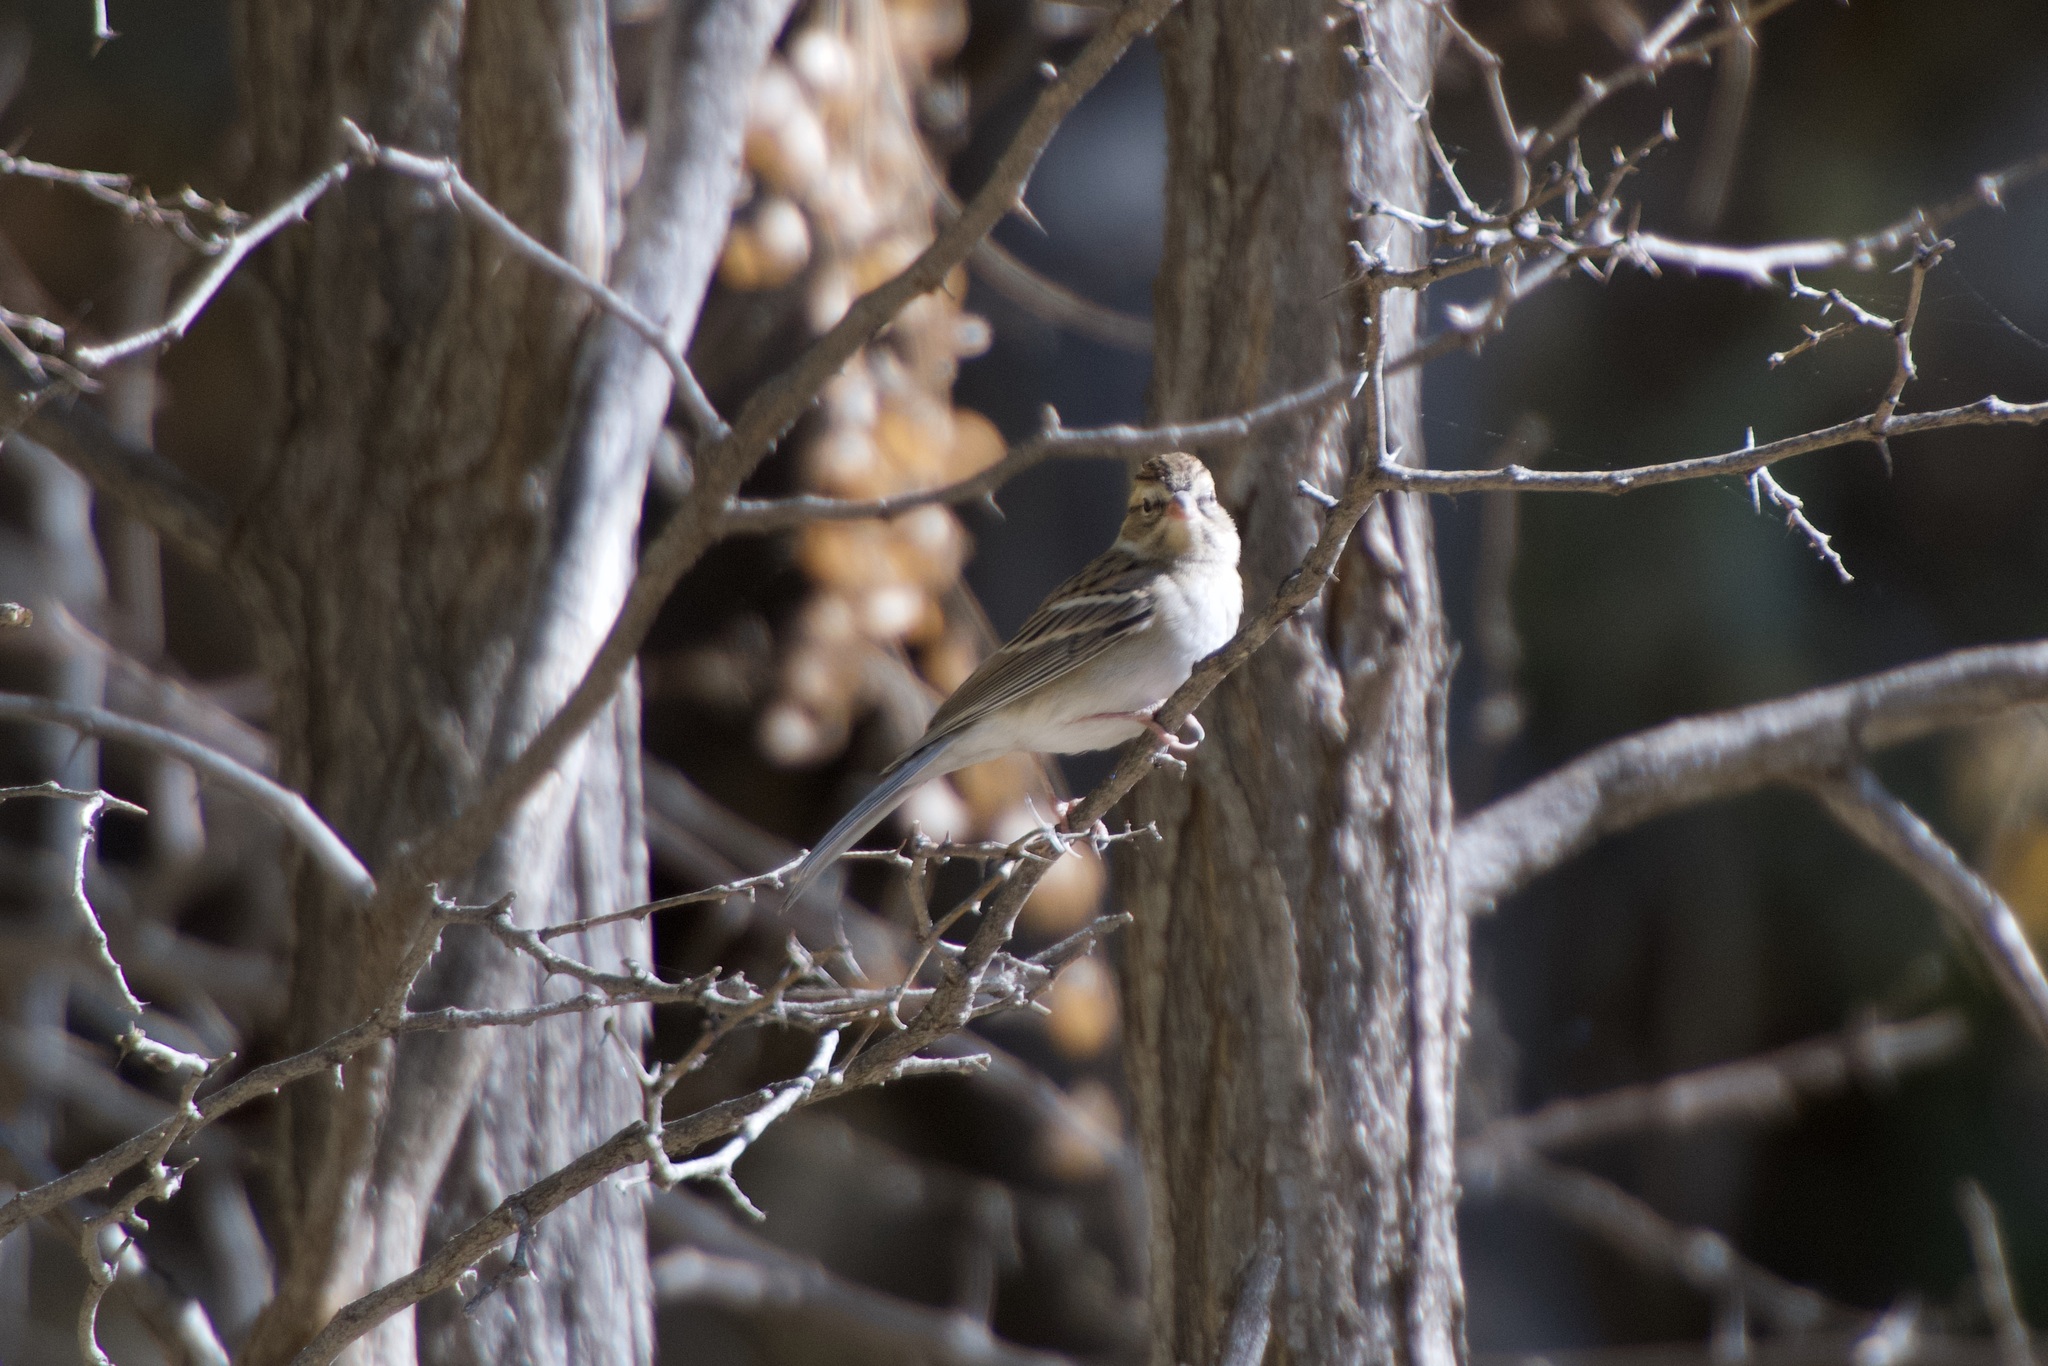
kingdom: Animalia
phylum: Chordata
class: Aves
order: Passeriformes
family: Passerellidae
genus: Spizella
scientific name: Spizella passerina
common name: Chipping sparrow
